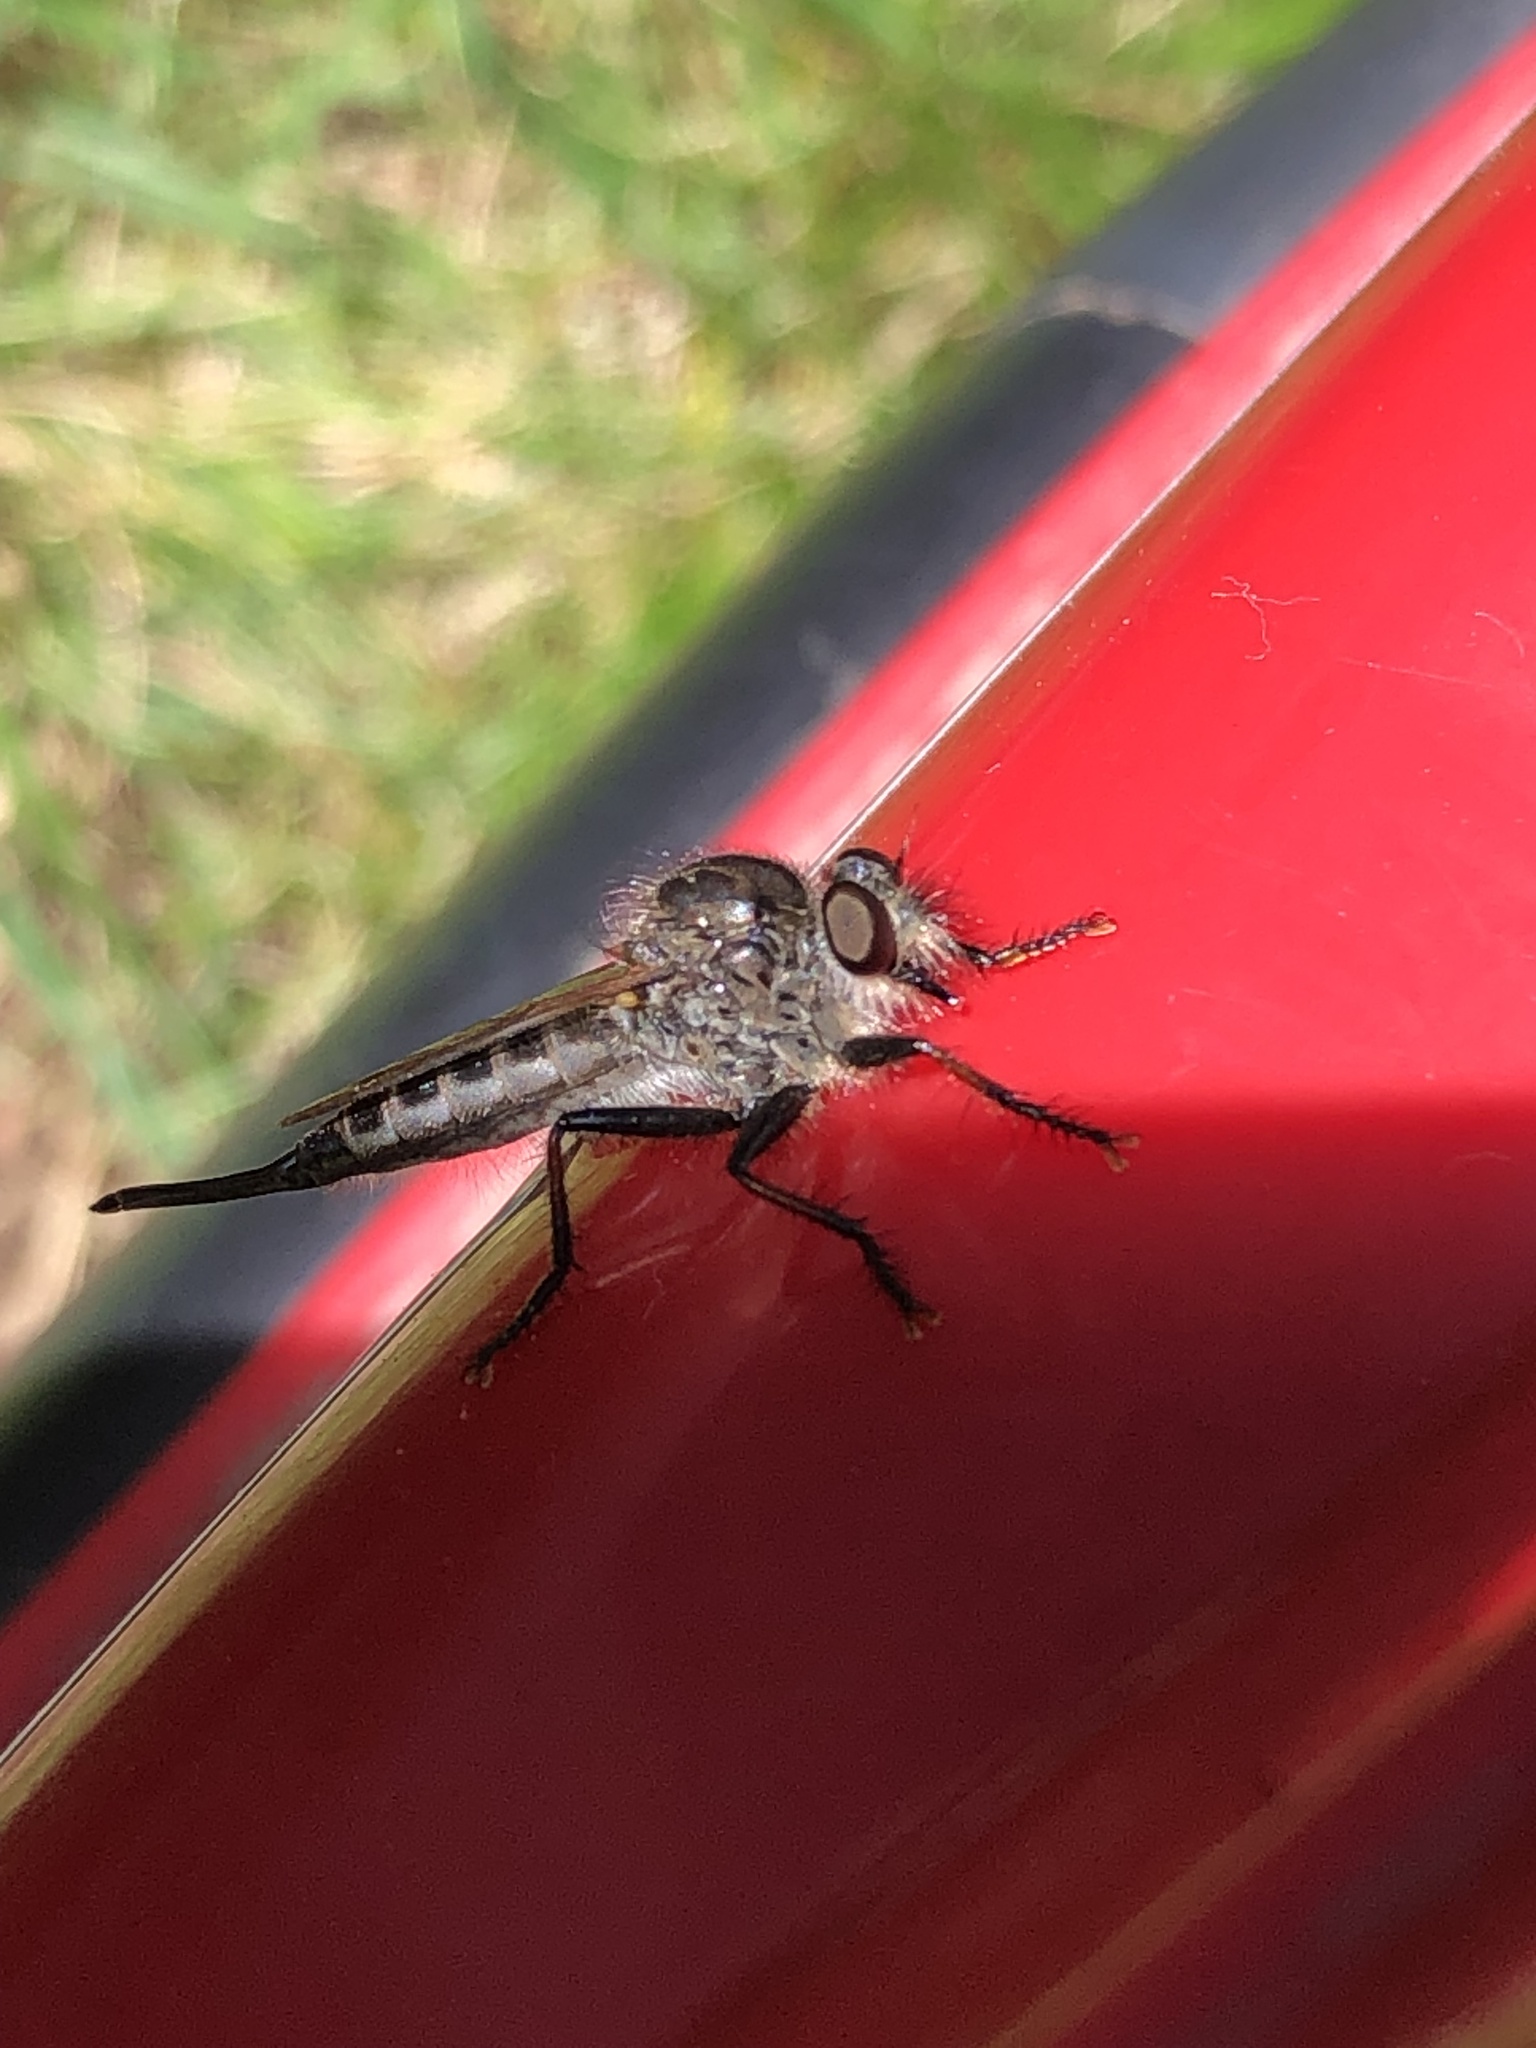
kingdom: Animalia
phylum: Arthropoda
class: Insecta
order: Diptera
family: Asilidae
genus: Efferia
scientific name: Efferia aestuans
